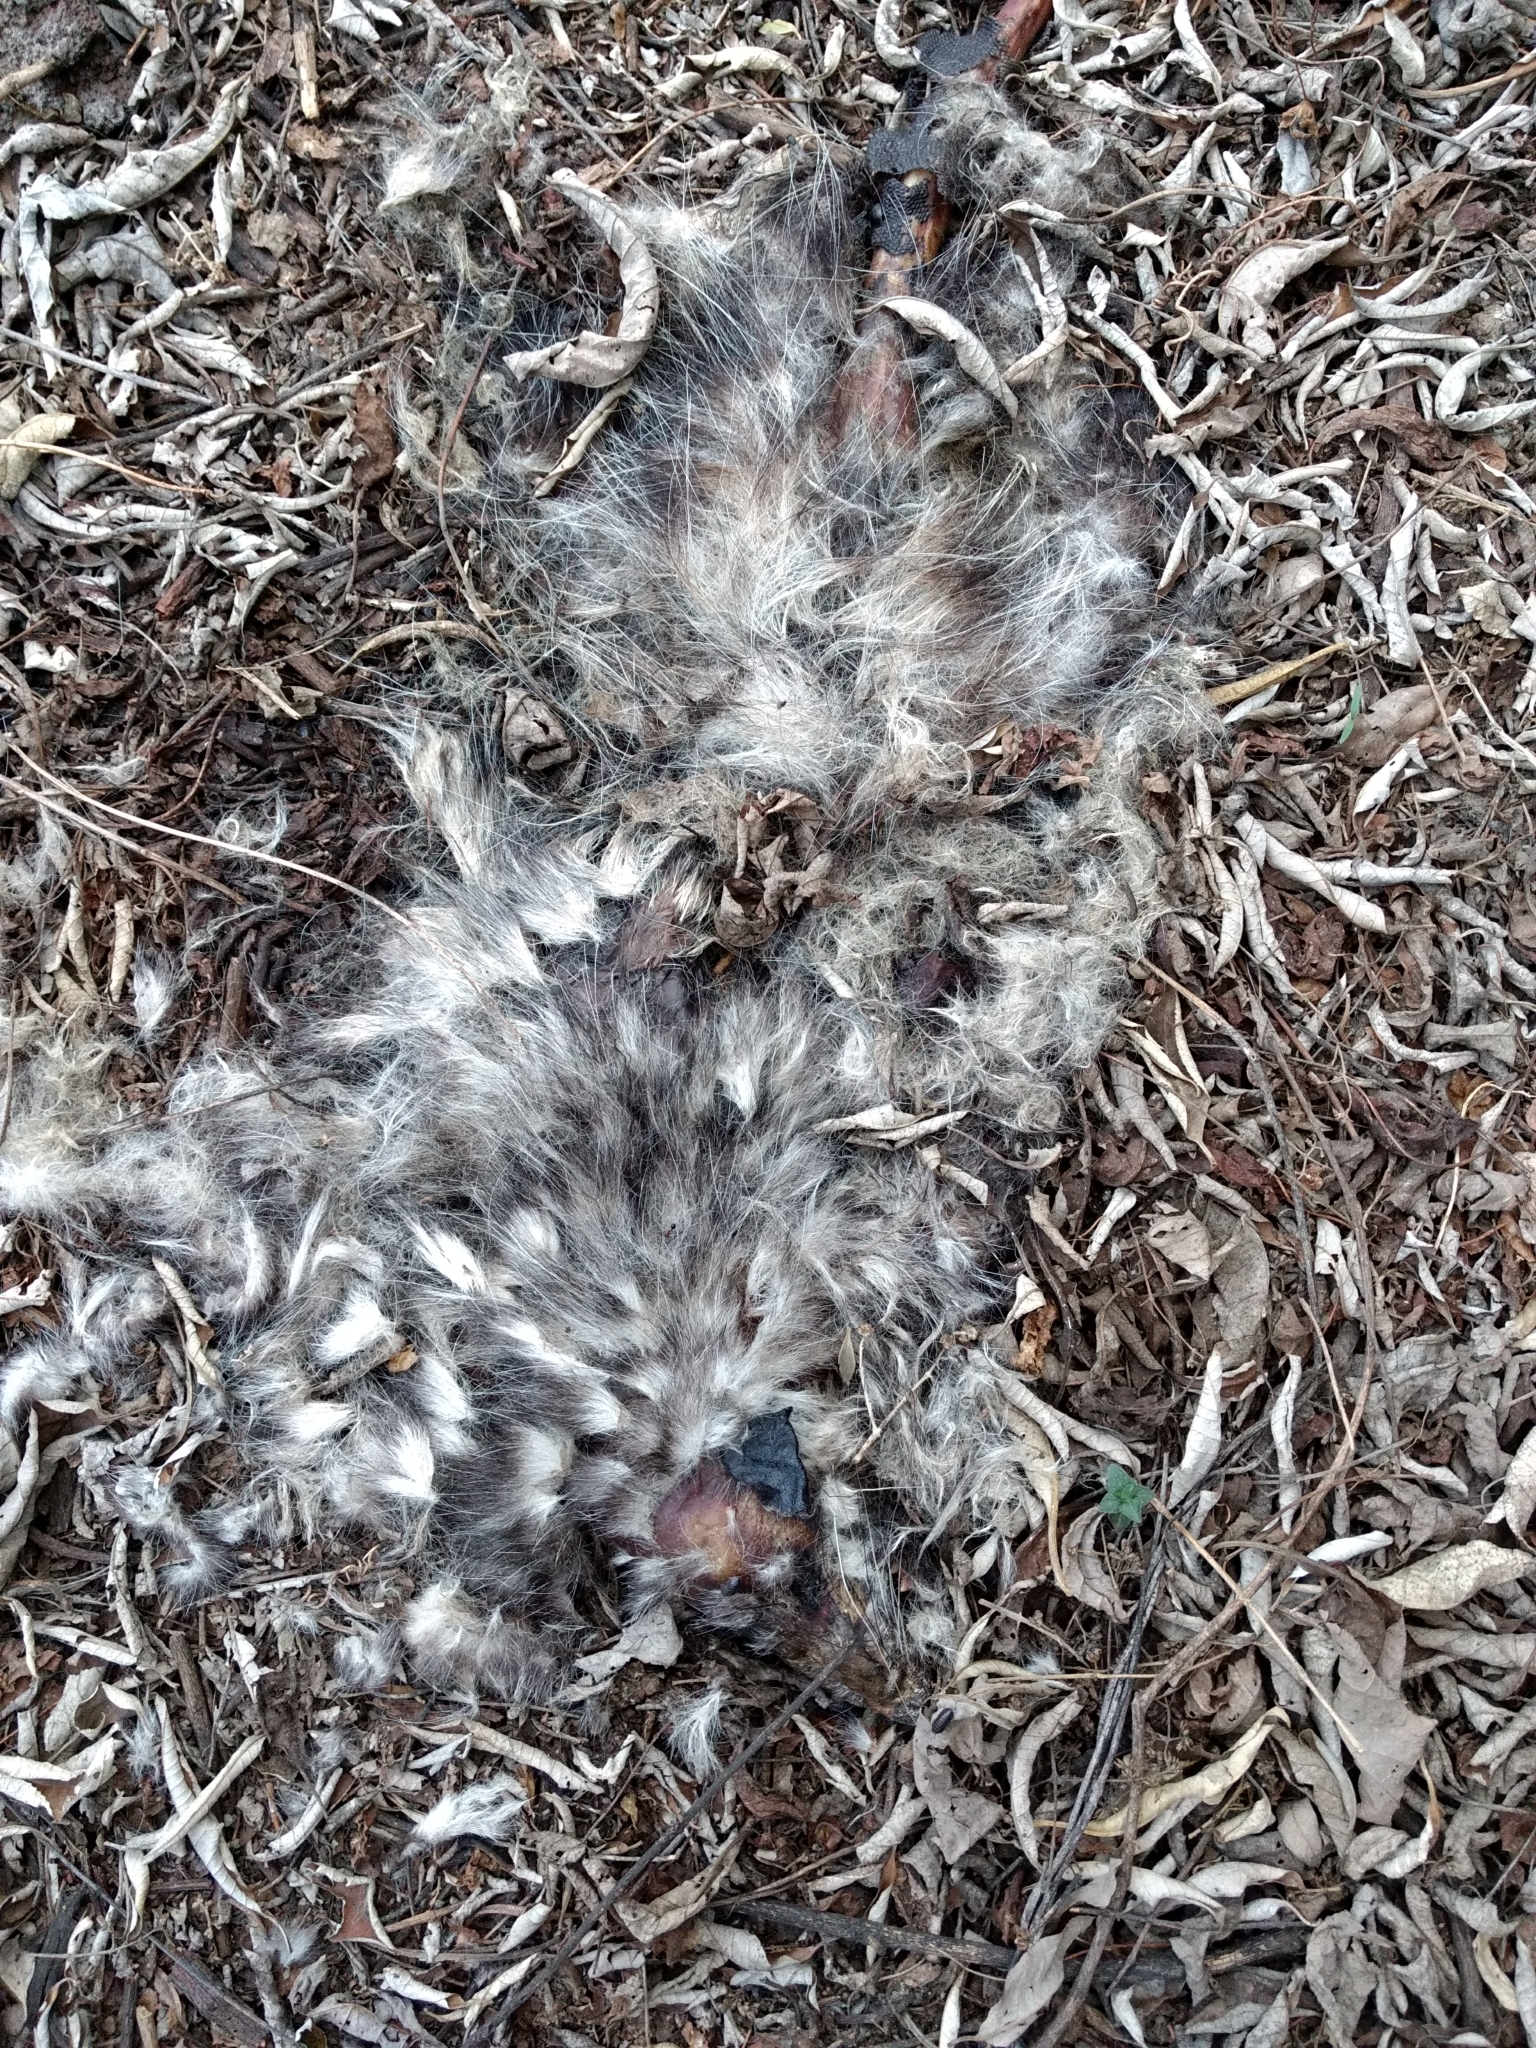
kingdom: Animalia
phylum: Chordata
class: Mammalia
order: Didelphimorphia
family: Didelphidae
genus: Didelphis
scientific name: Didelphis virginiana
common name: Virginia opossum
